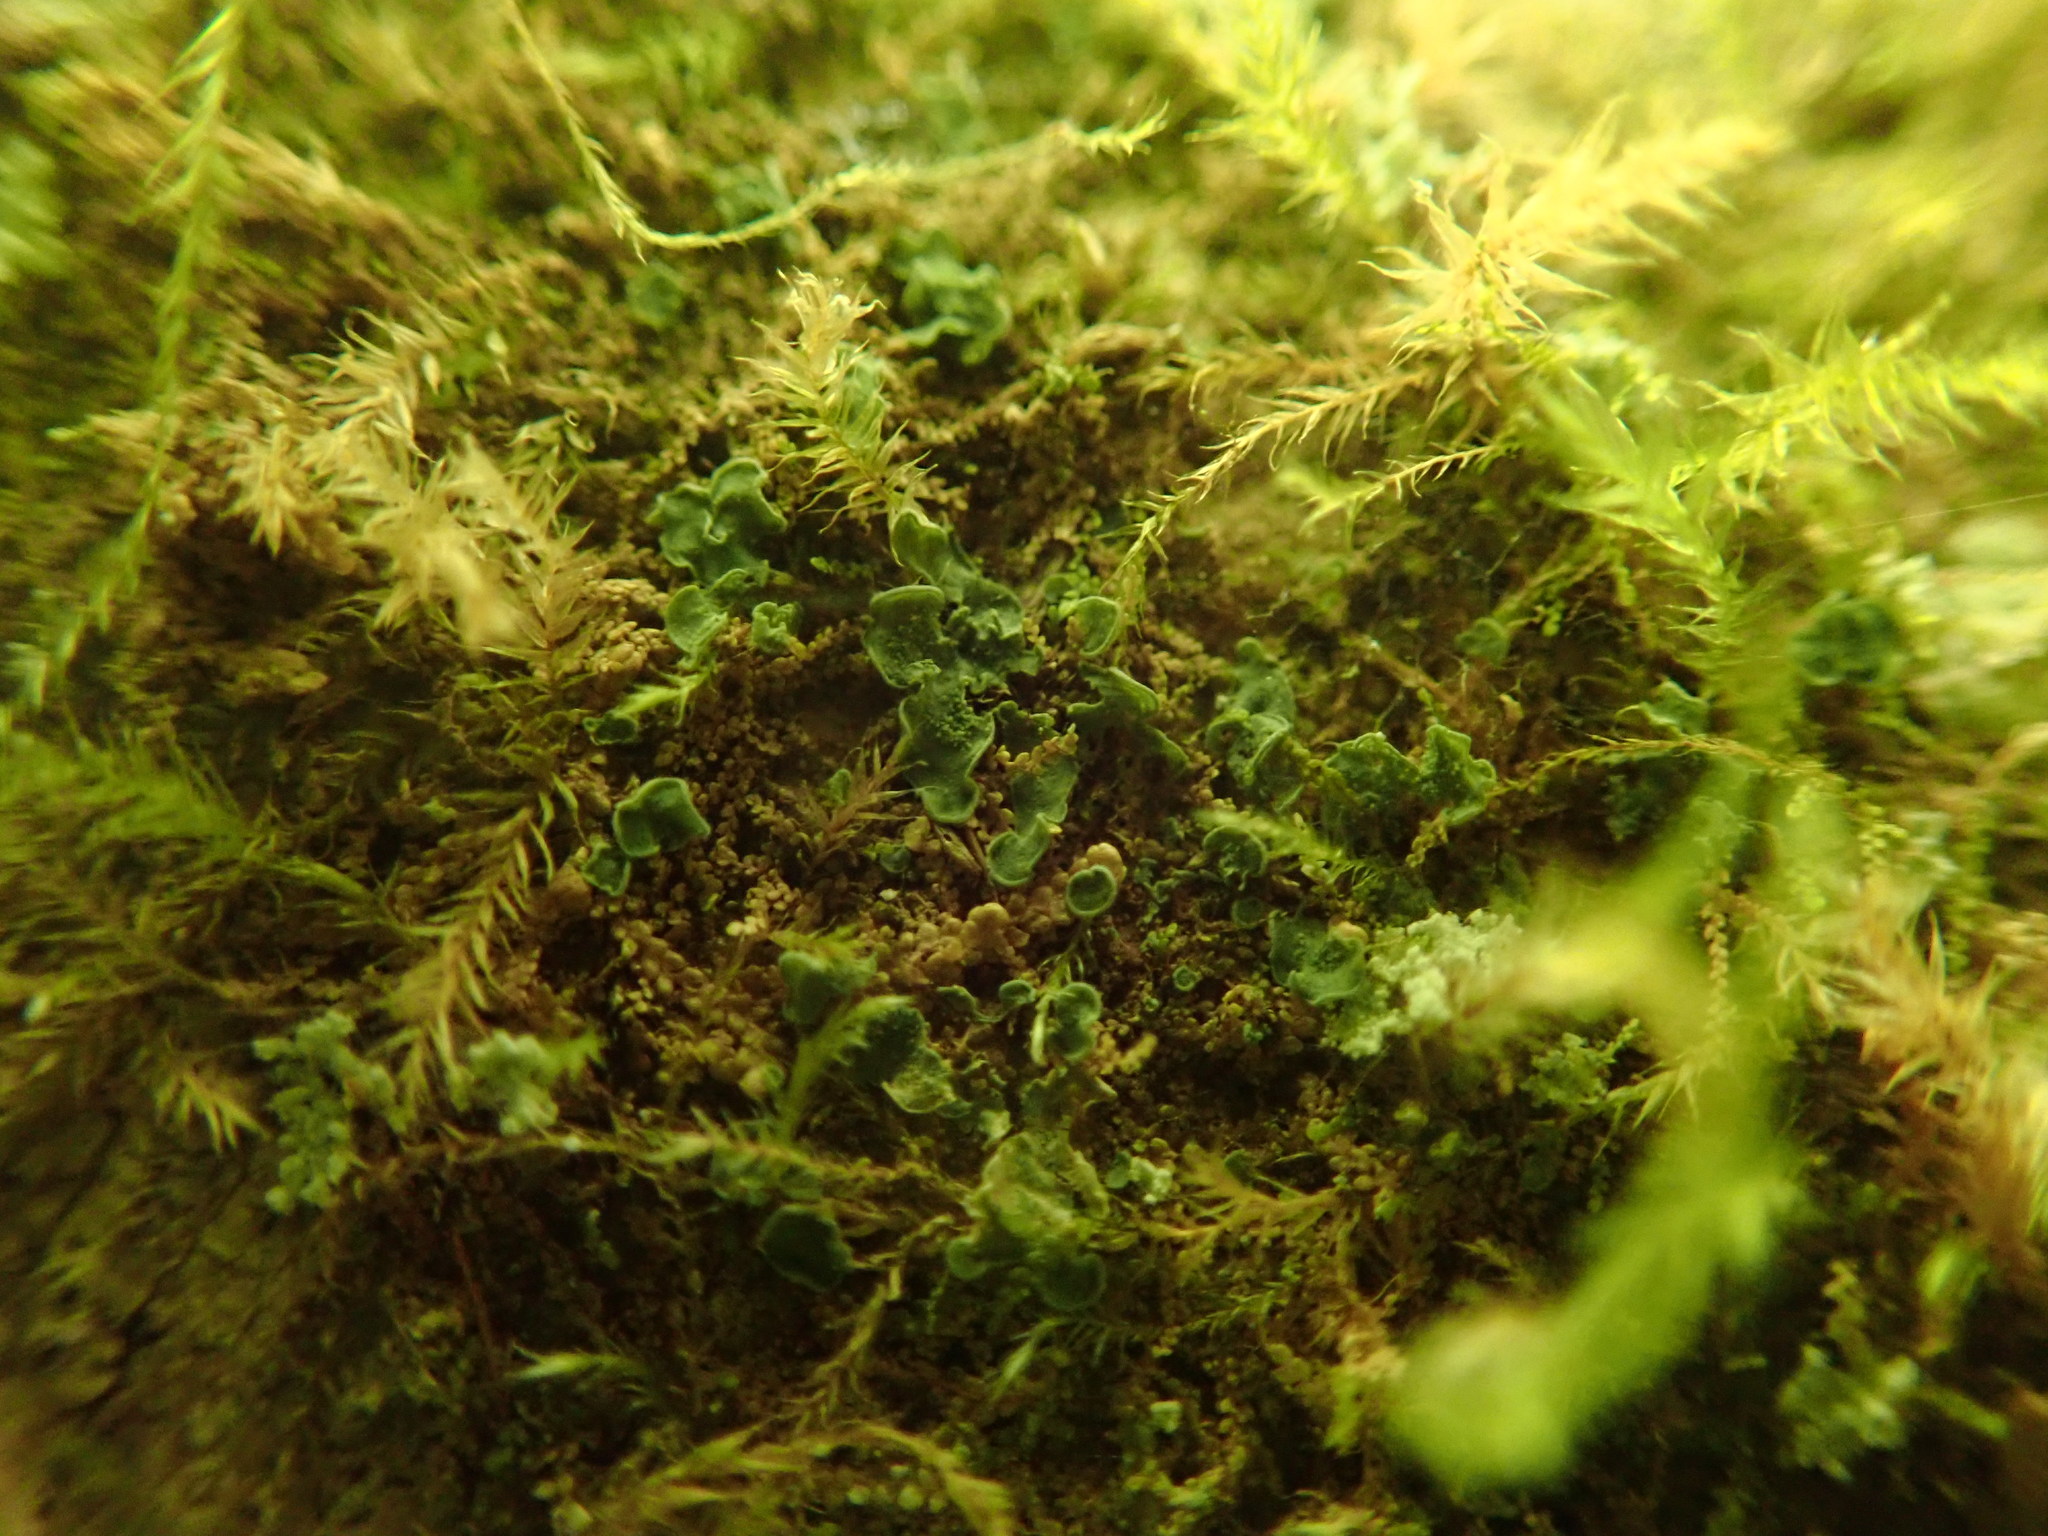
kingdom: Fungi
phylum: Ascomycota
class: Eurotiomycetes
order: Verrucariales
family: Verrucariaceae
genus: Normandina
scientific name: Normandina pulchella
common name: Elf ears lichen
